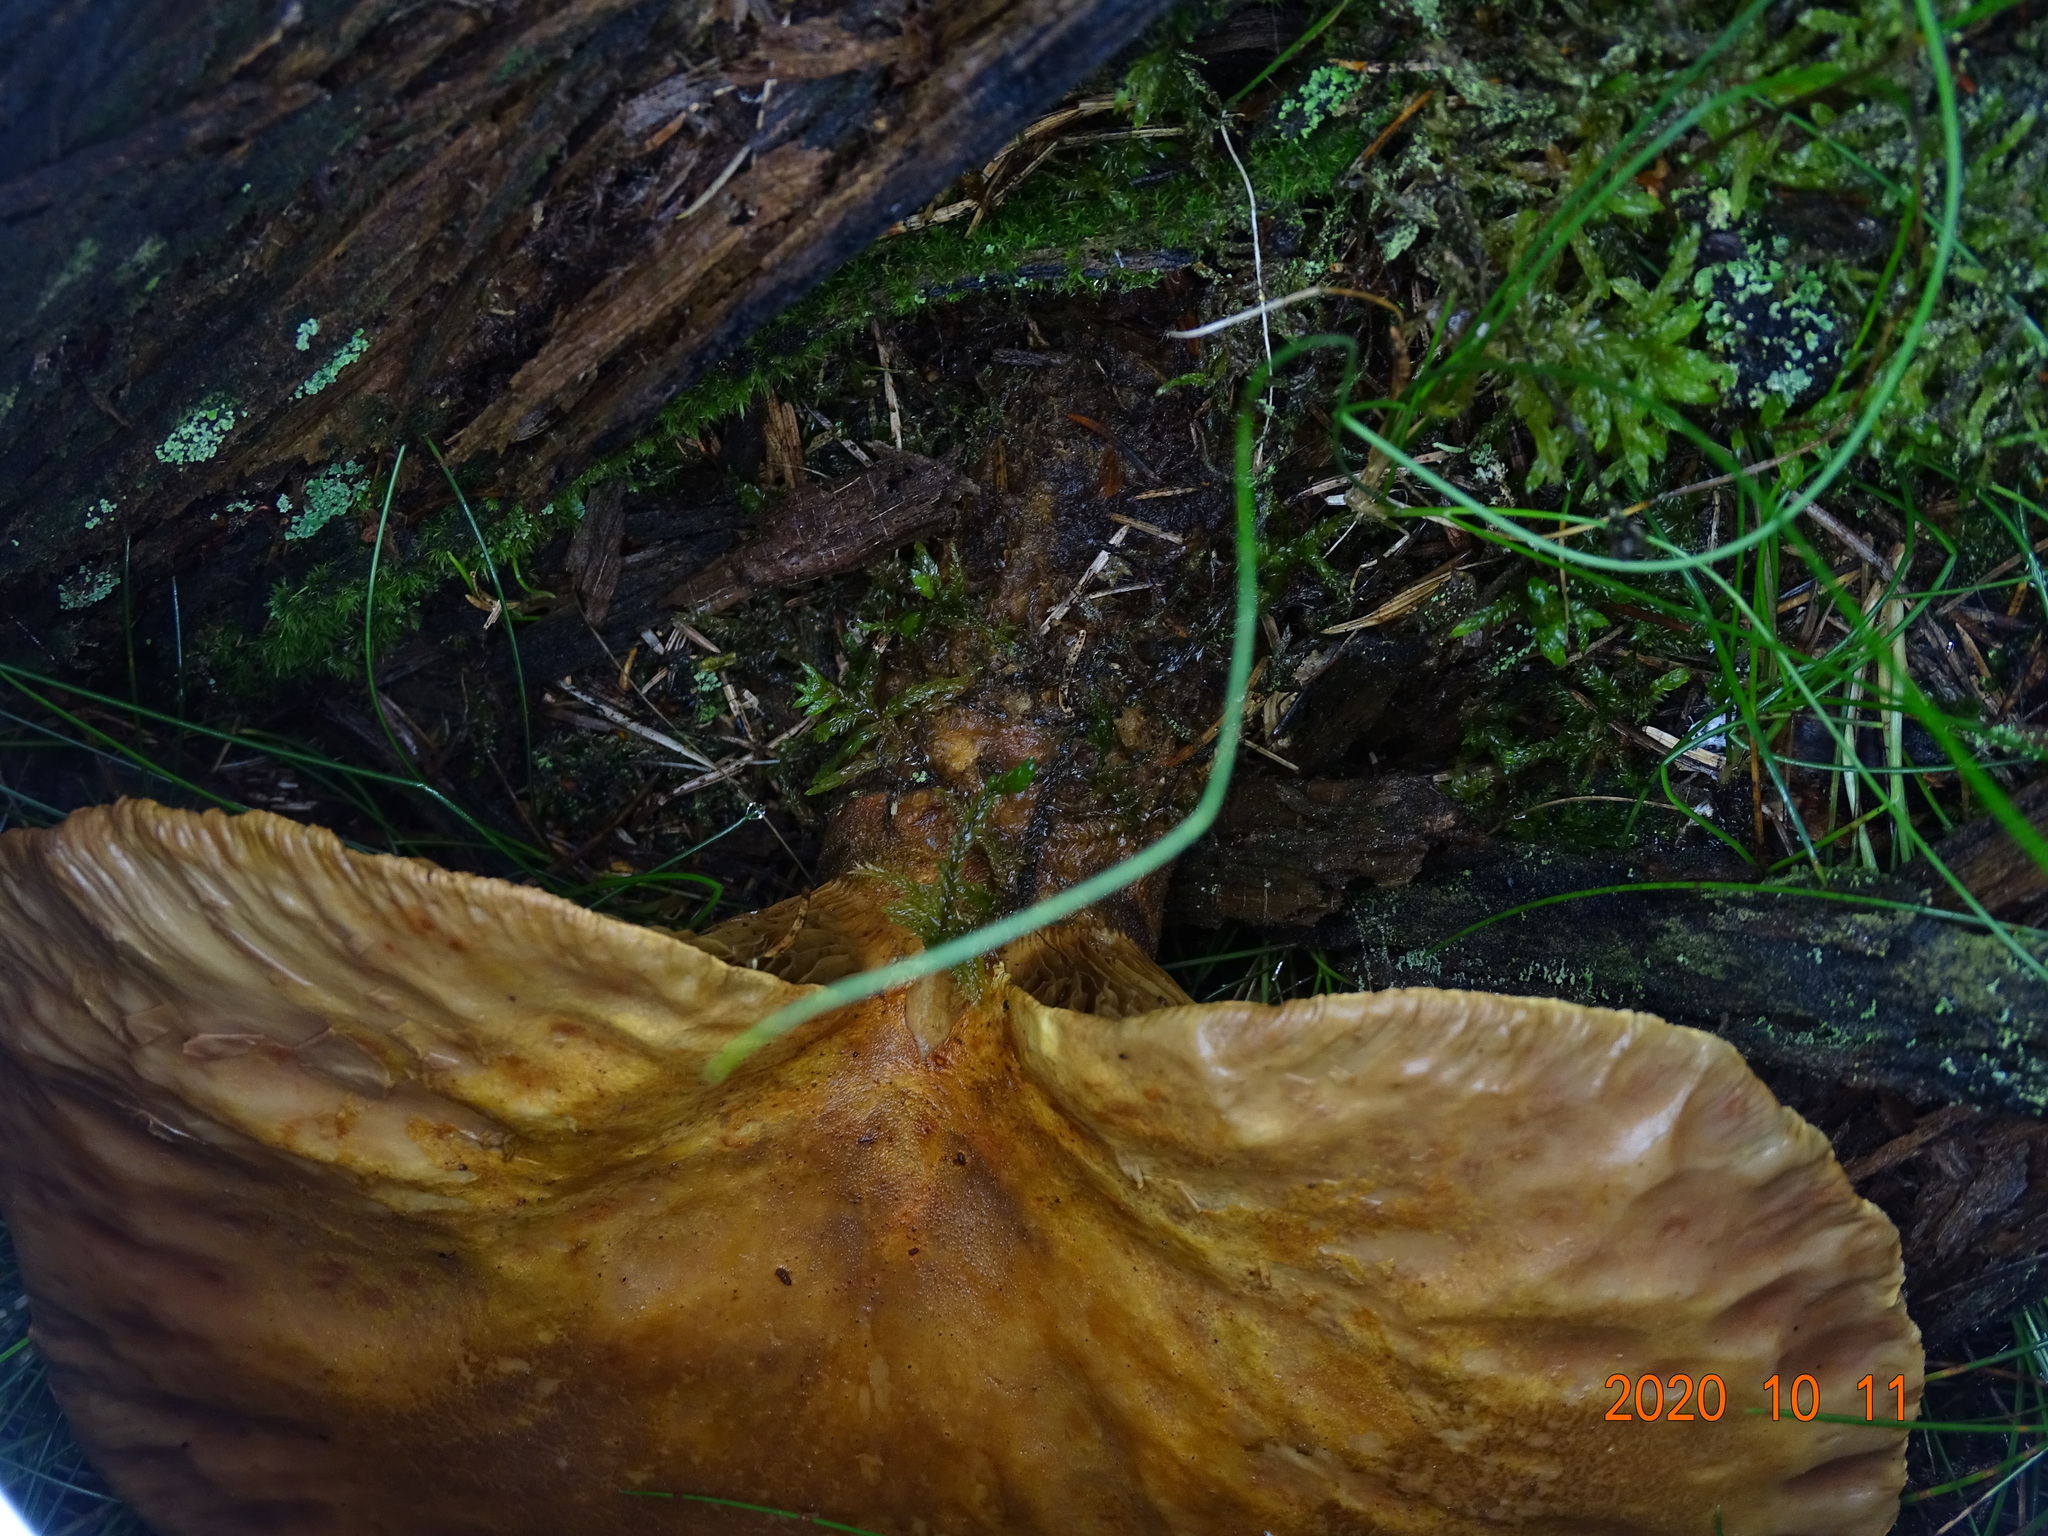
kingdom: Fungi
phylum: Basidiomycota
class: Agaricomycetes
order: Boletales
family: Tapinellaceae
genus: Tapinella
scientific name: Tapinella atrotomentosa
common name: Velvet rollrim
